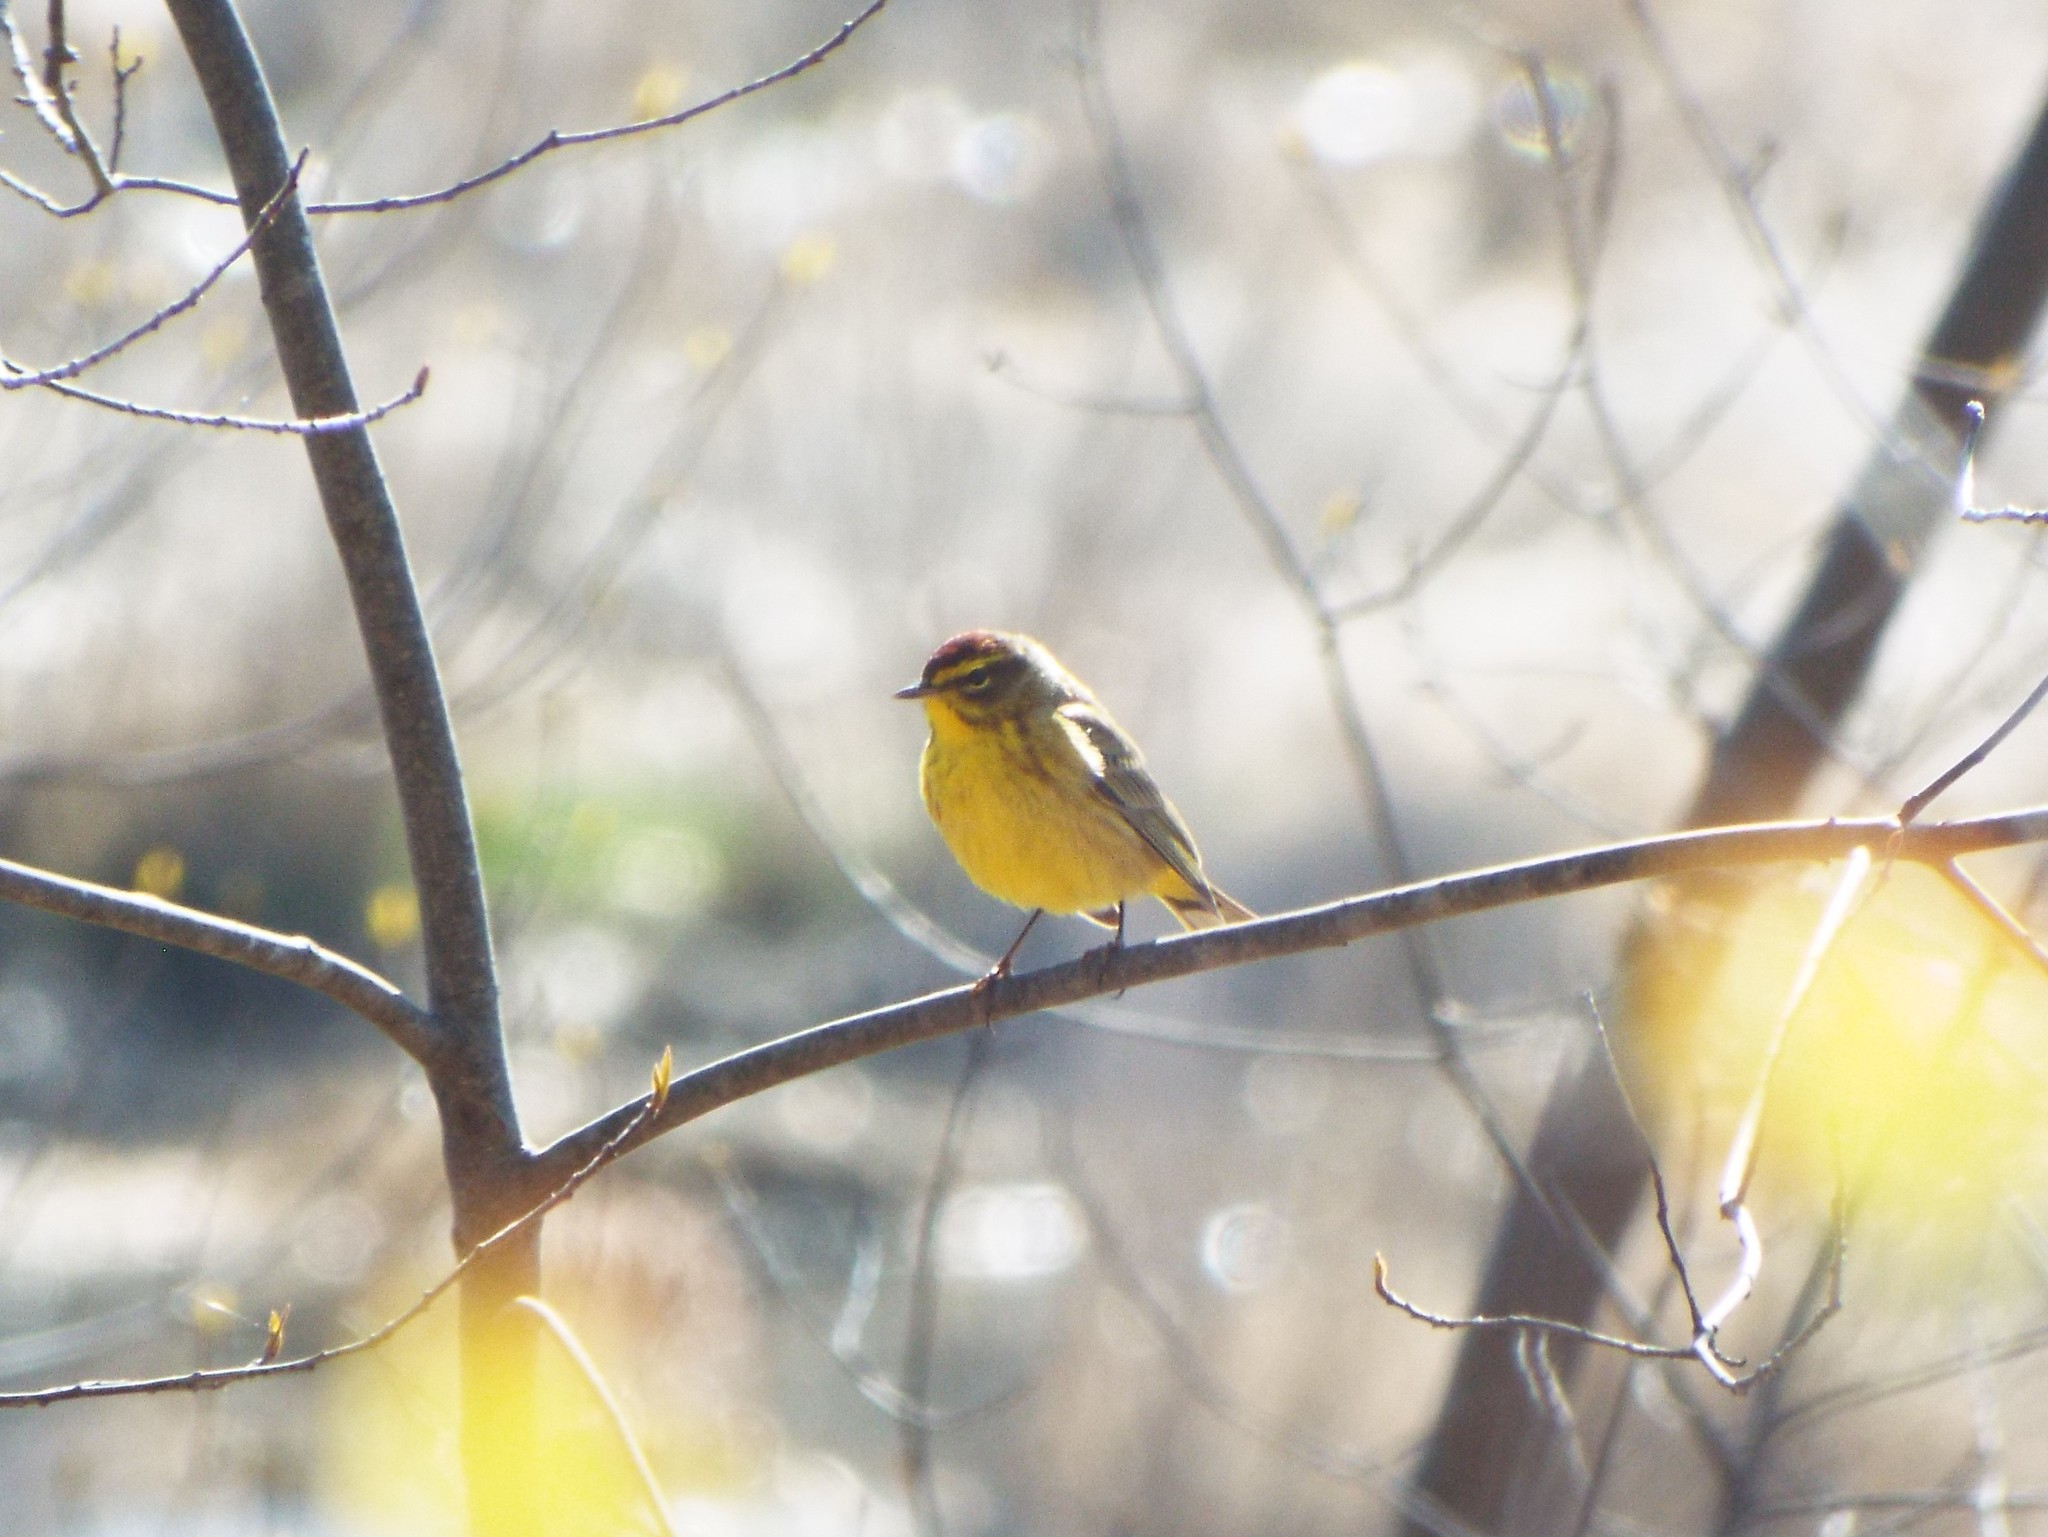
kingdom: Animalia
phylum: Chordata
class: Aves
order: Passeriformes
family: Parulidae
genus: Setophaga
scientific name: Setophaga palmarum
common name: Palm warbler
